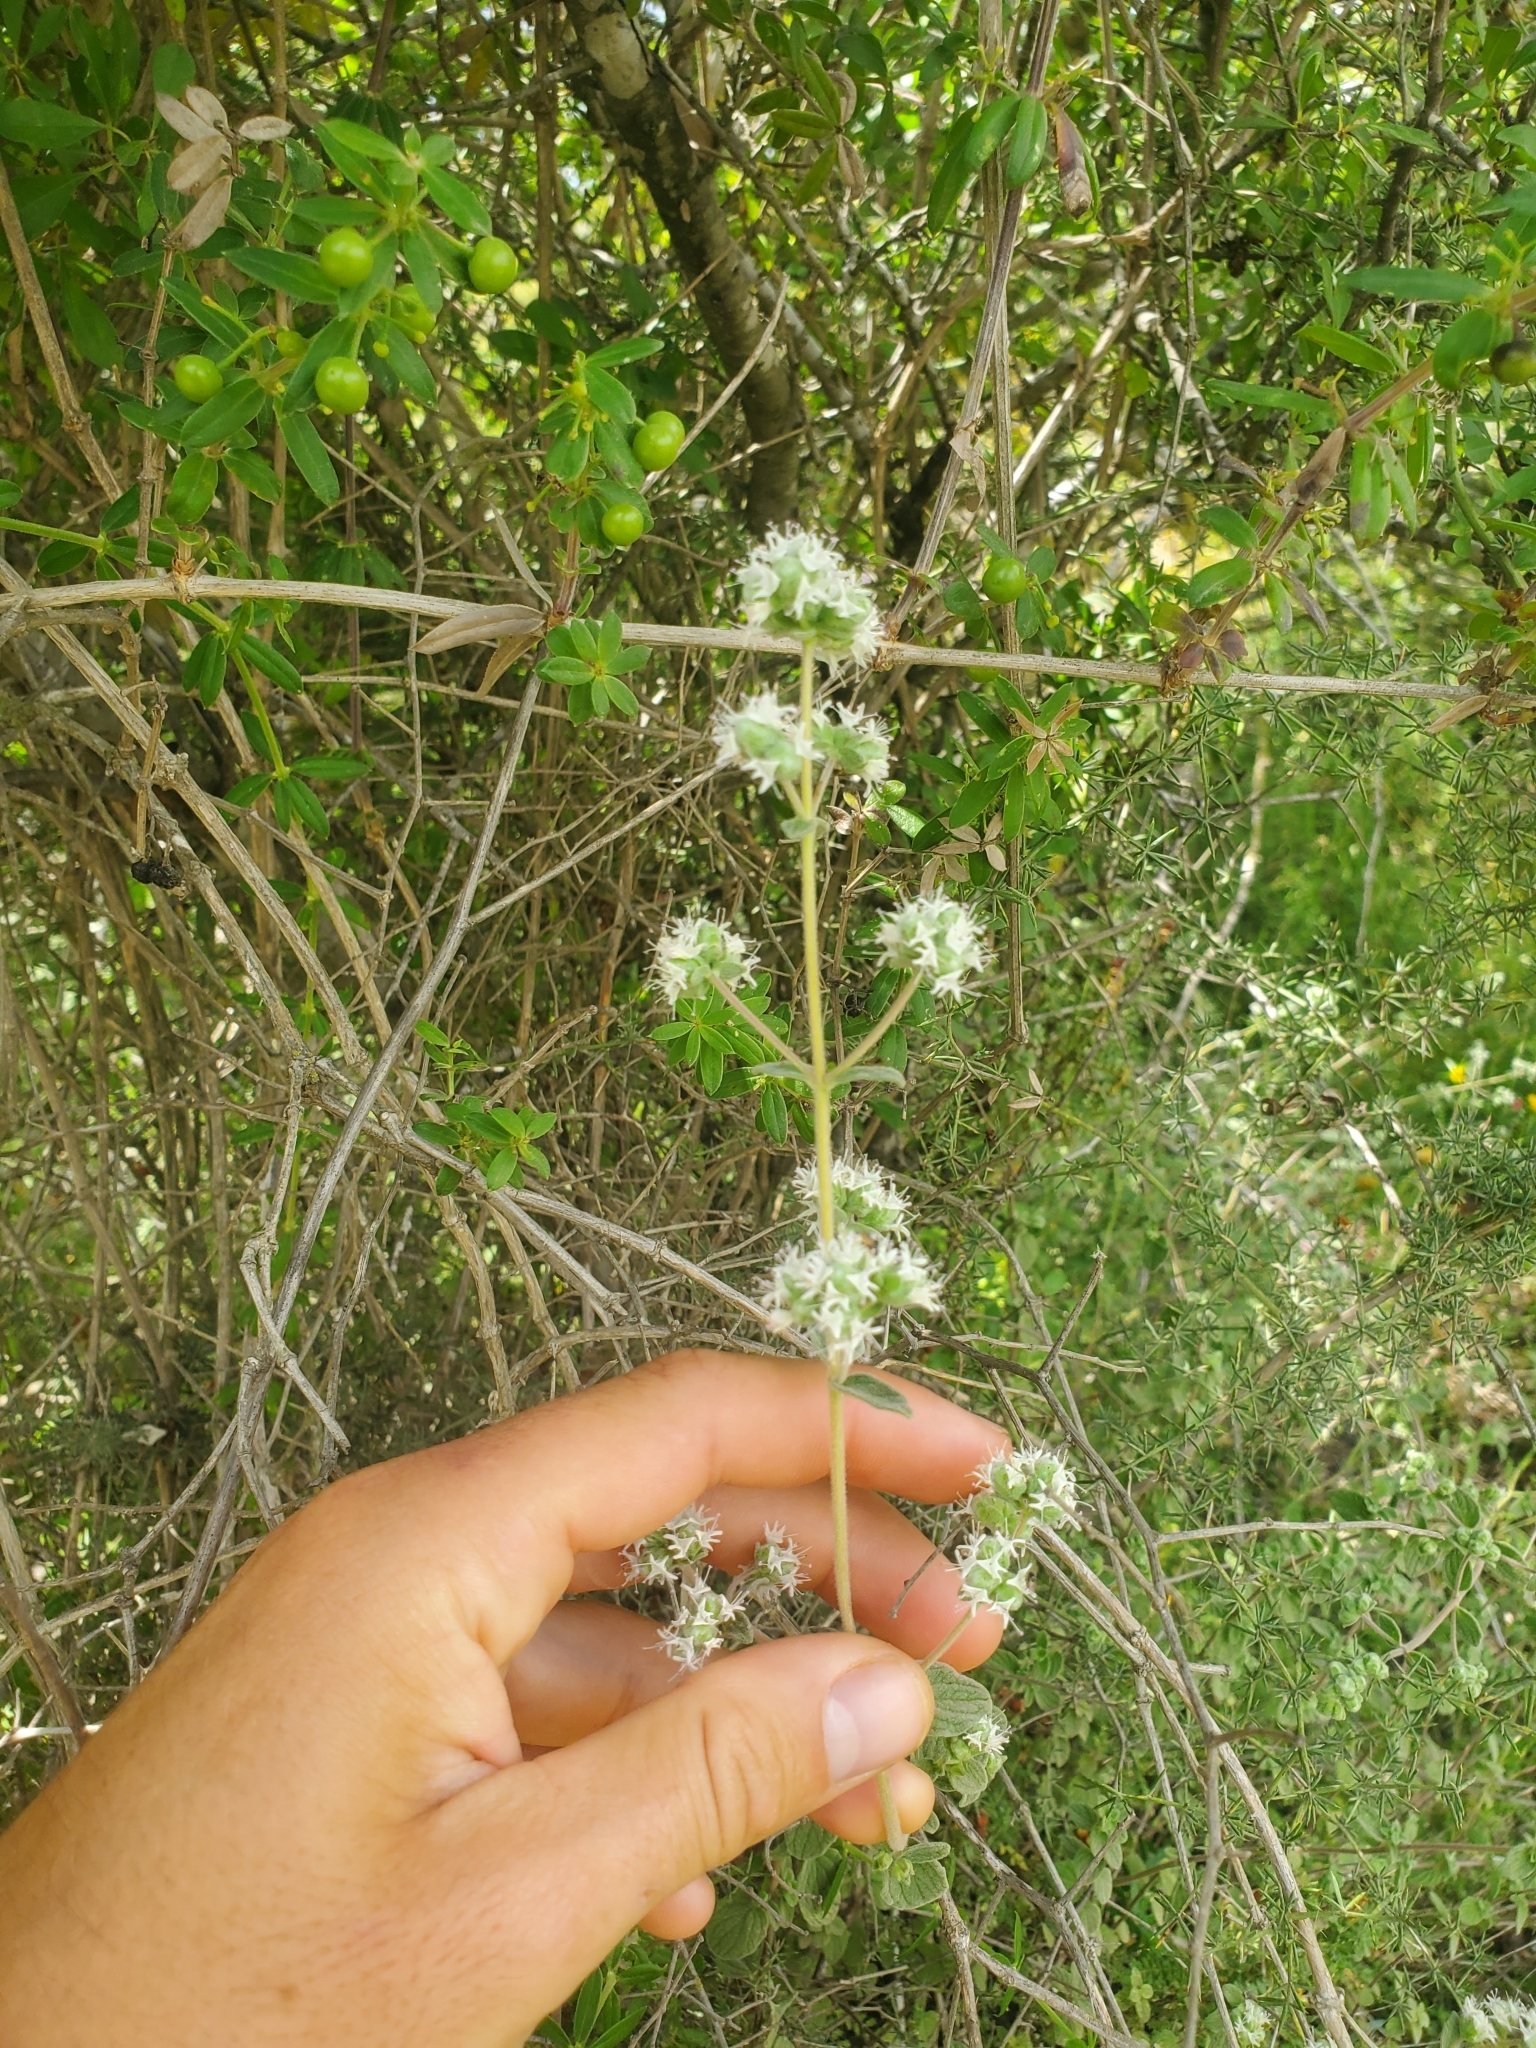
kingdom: Plantae
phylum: Tracheophyta
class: Magnoliopsida
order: Lamiales
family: Lamiaceae
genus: Origanum
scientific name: Origanum syriacum
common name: Biblical-hyssop
